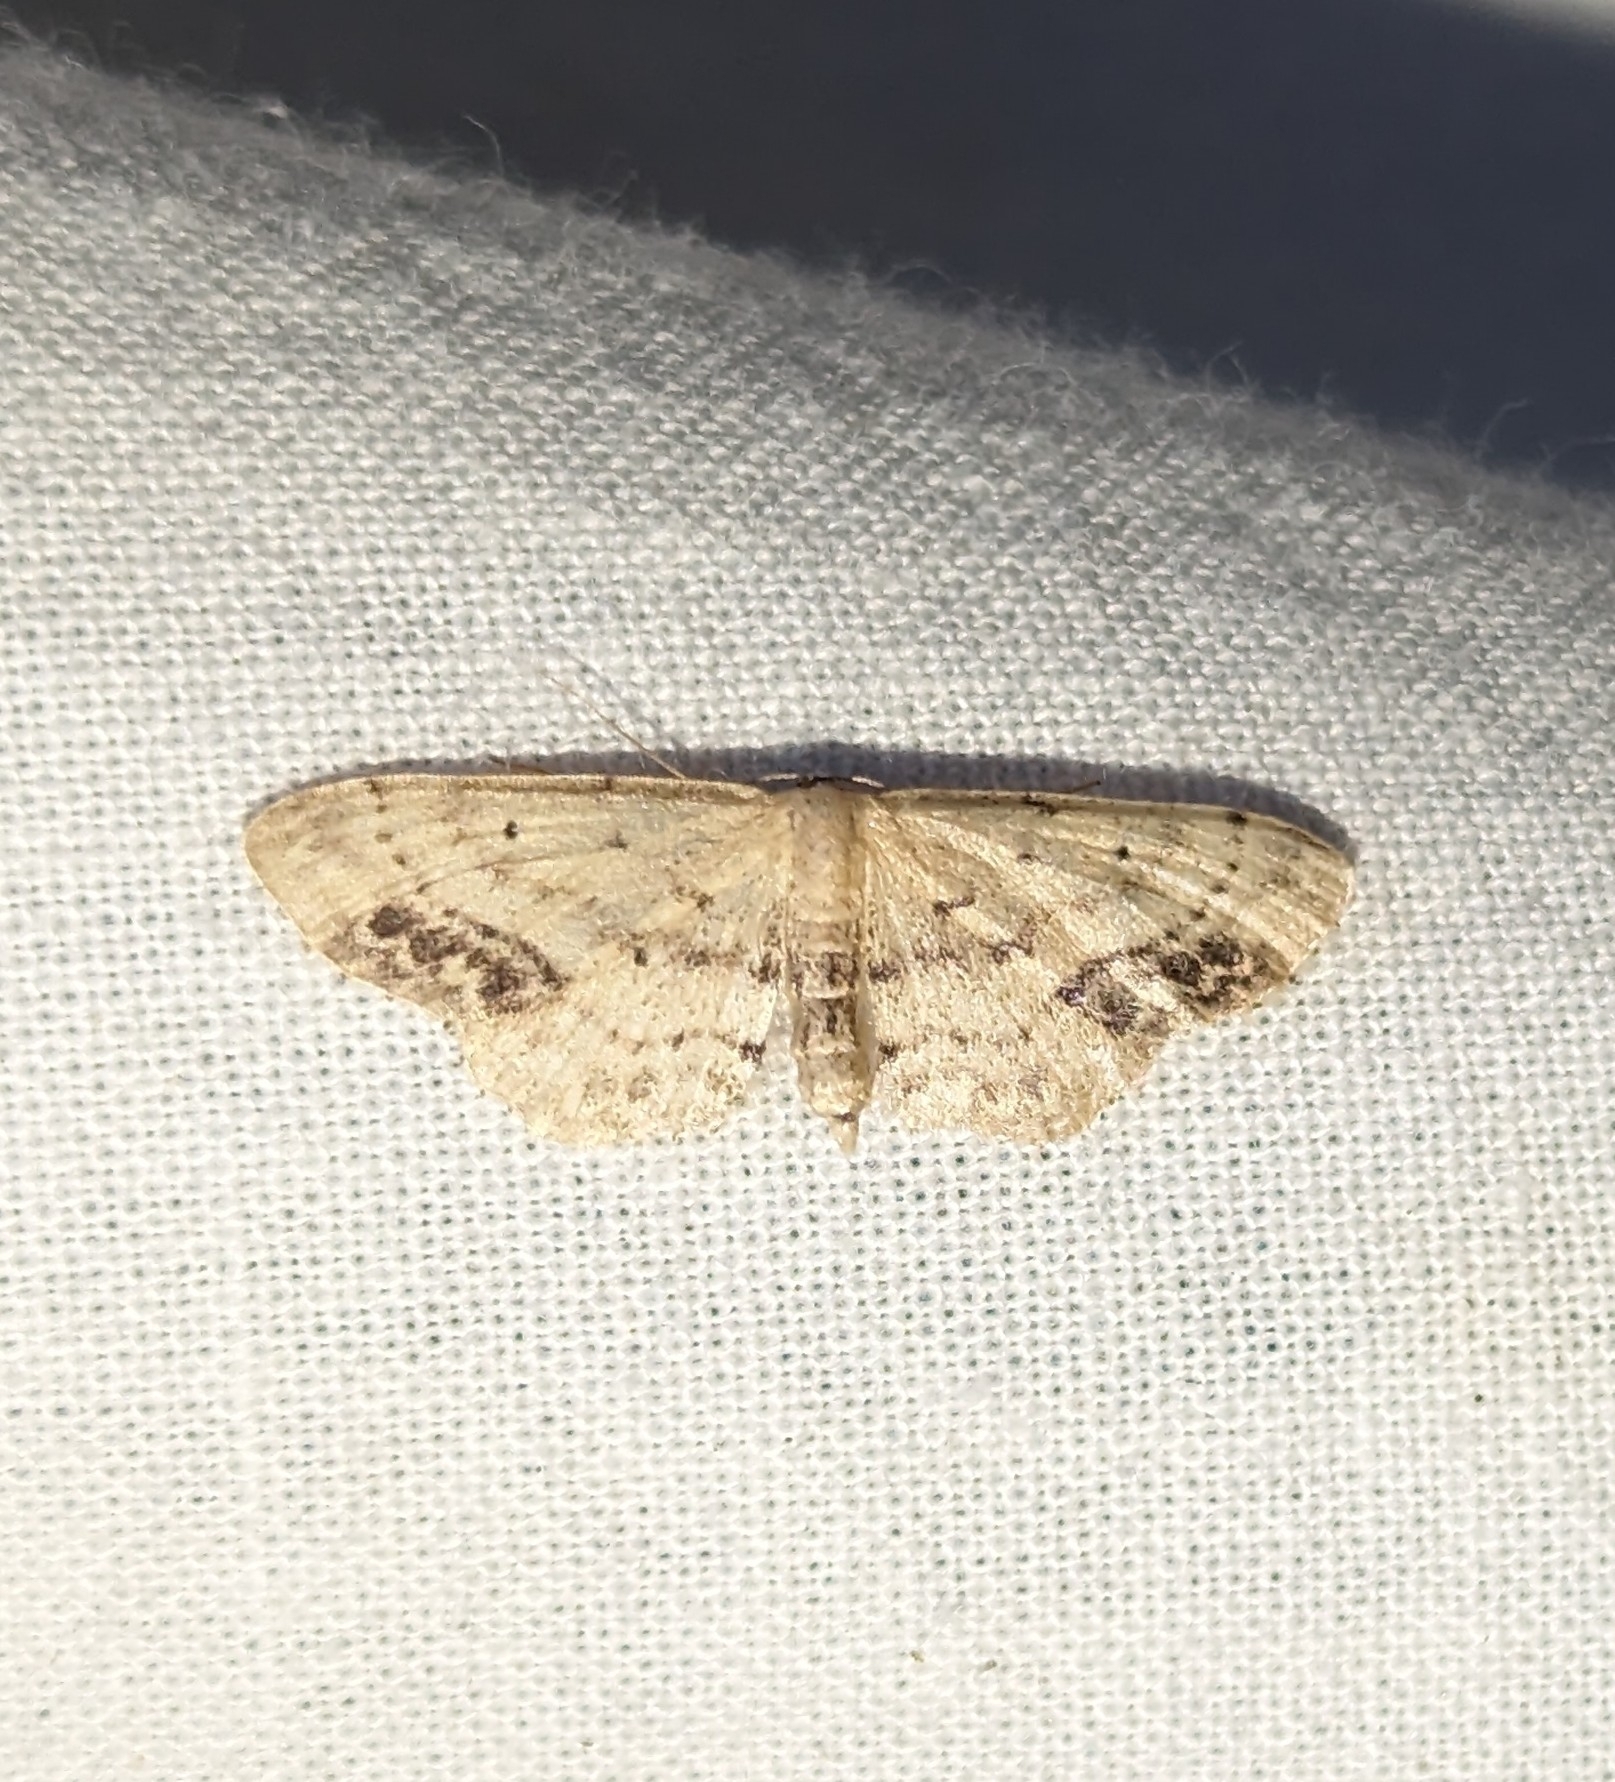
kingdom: Animalia
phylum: Arthropoda
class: Insecta
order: Lepidoptera
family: Geometridae
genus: Idaea
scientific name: Idaea dimidiata
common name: Single-dotted wave
